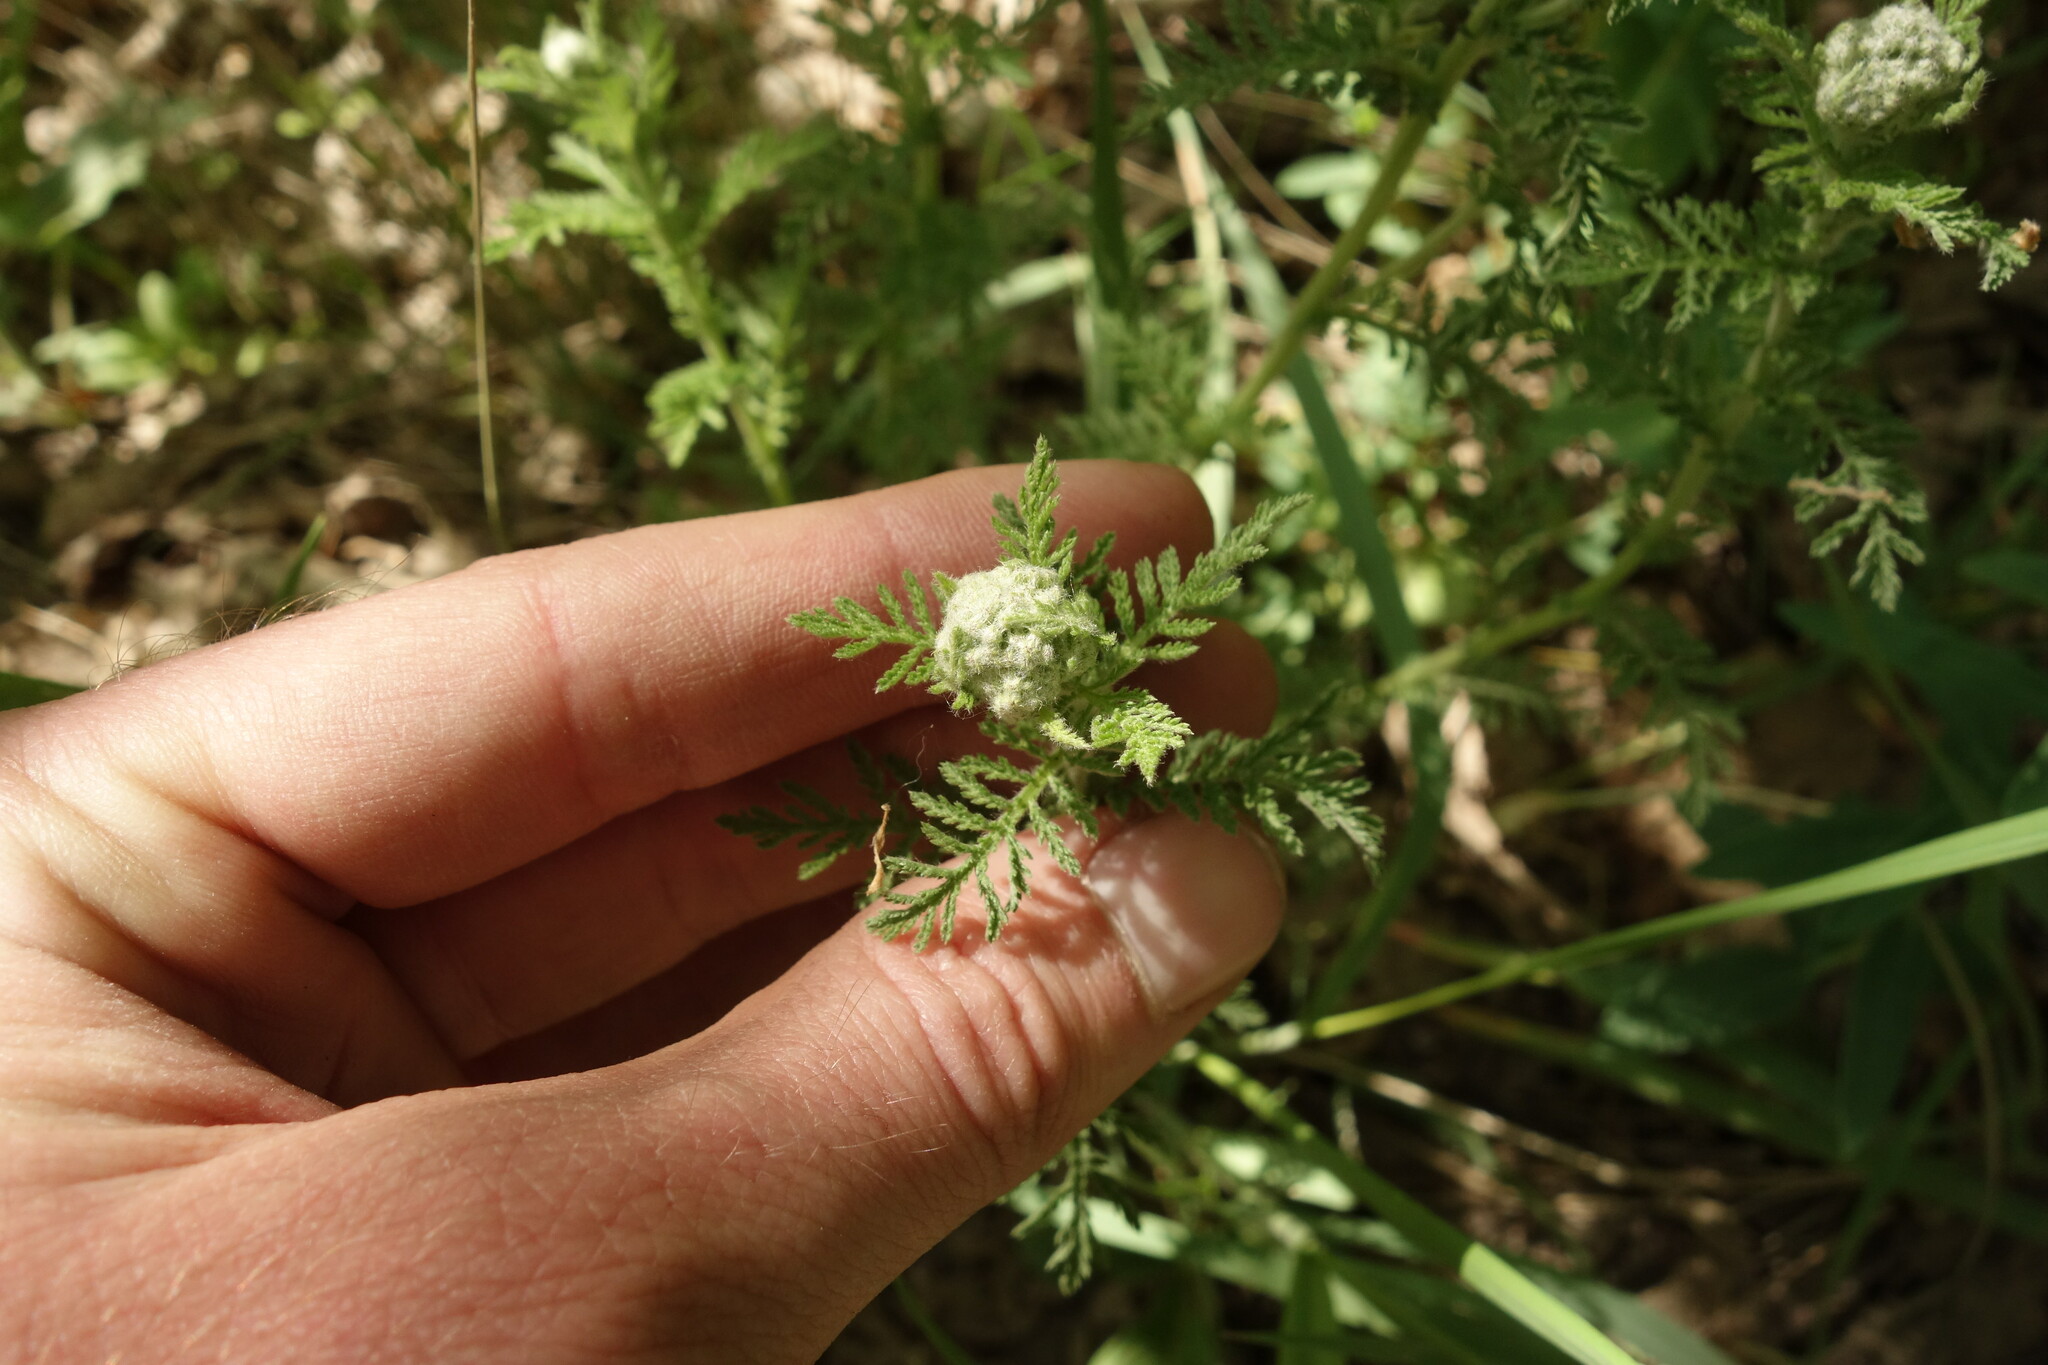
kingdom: Plantae
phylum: Tracheophyta
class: Magnoliopsida
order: Asterales
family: Asteraceae
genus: Achillea
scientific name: Achillea nobilis
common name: Noble yarrow
